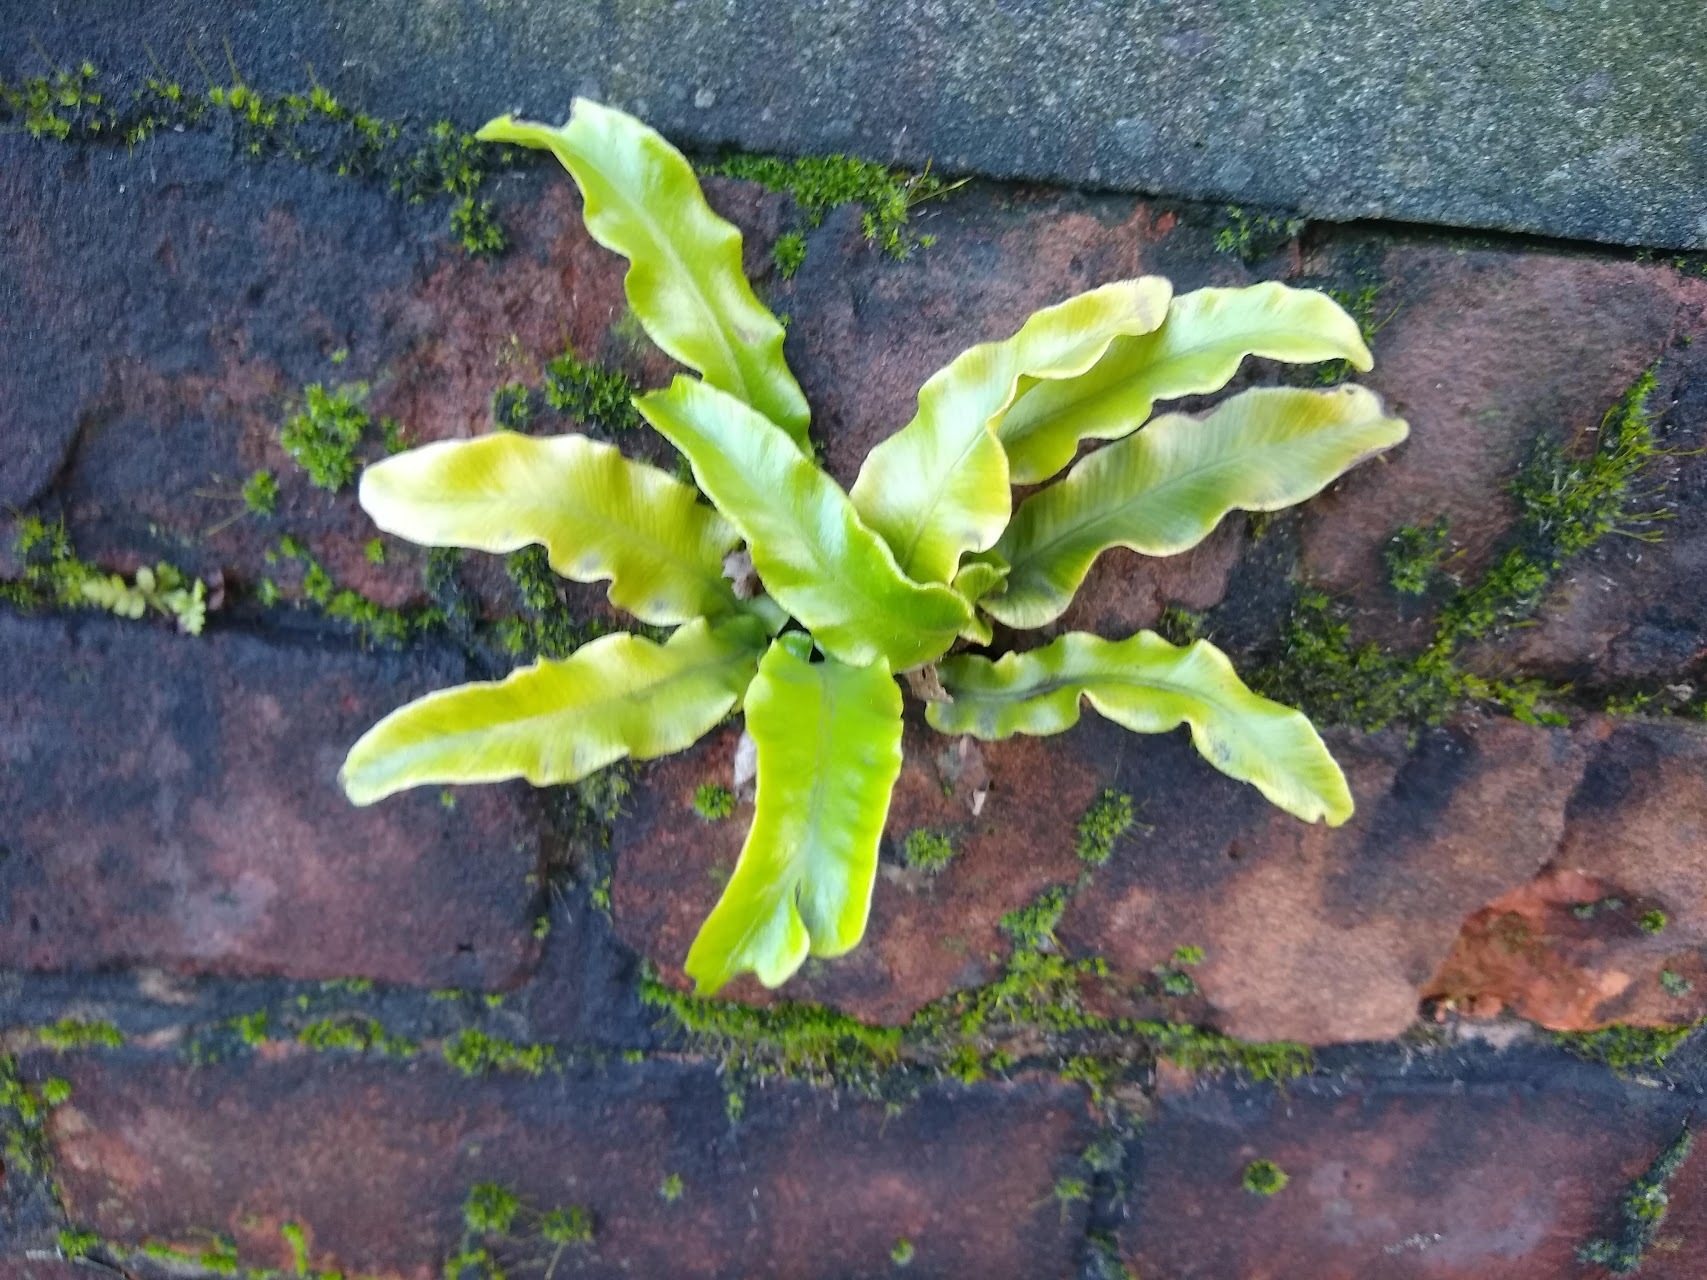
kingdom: Plantae
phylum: Tracheophyta
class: Polypodiopsida
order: Polypodiales
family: Aspleniaceae
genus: Asplenium
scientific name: Asplenium scolopendrium
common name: Hart's-tongue fern
